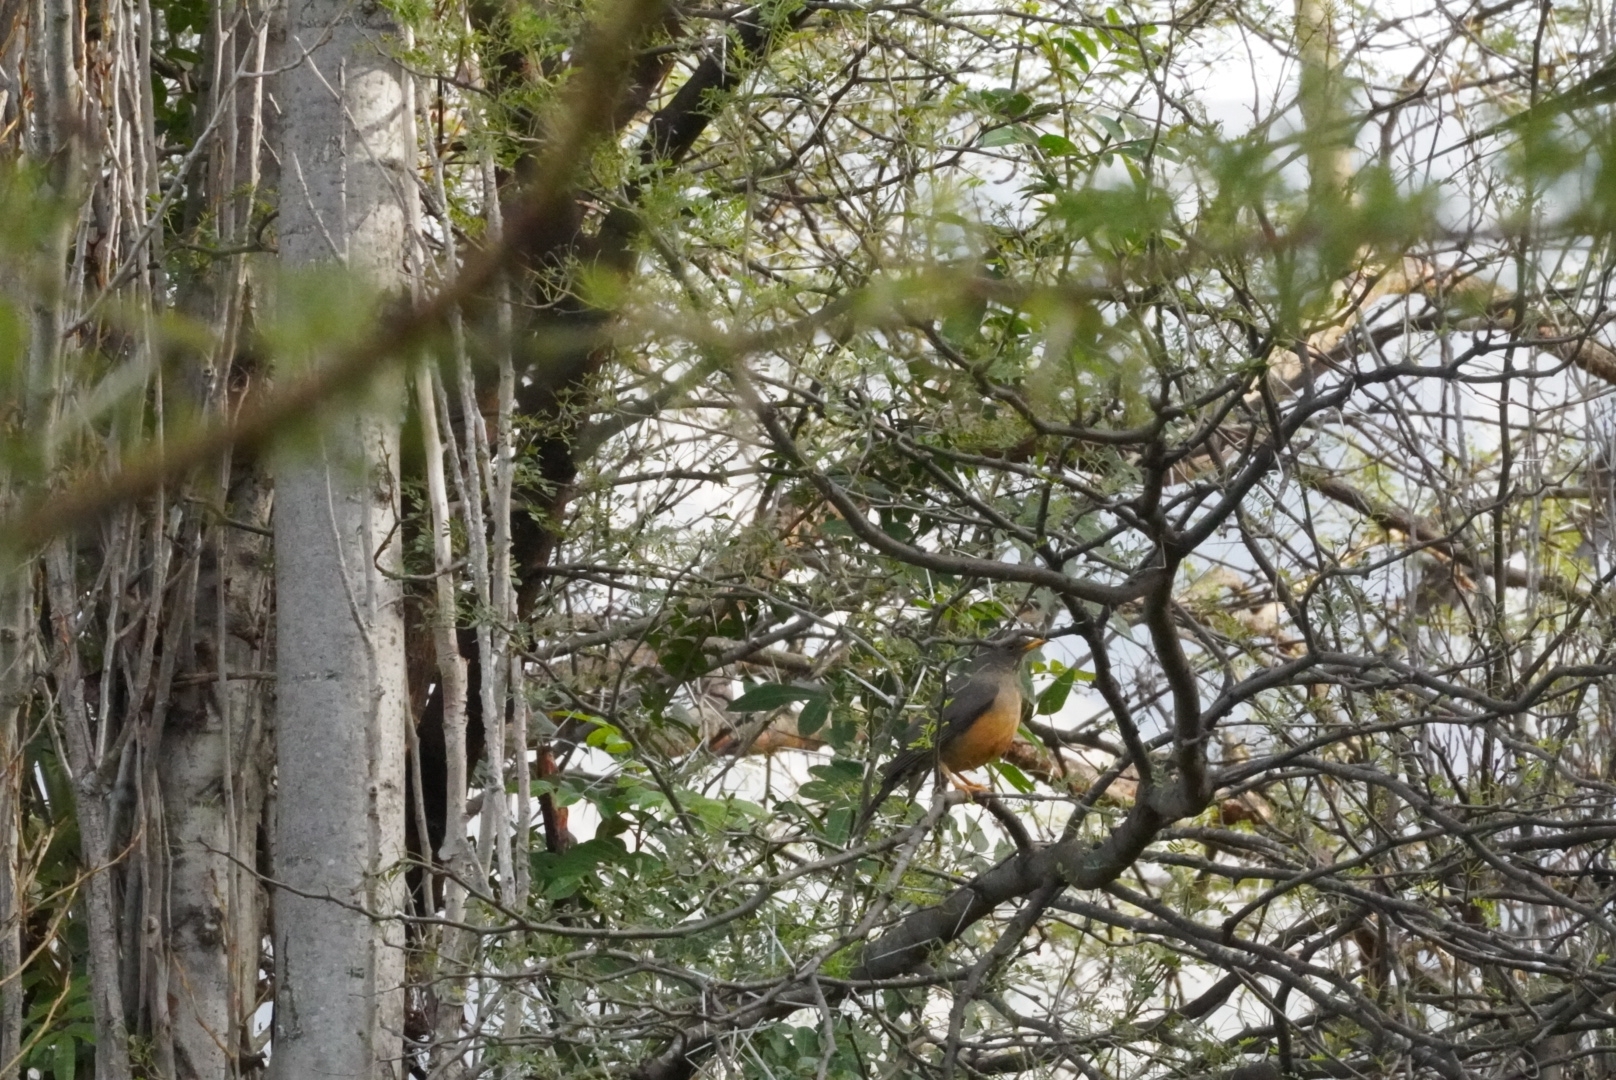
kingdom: Animalia
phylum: Chordata
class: Aves
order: Passeriformes
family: Turdidae
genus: Turdus
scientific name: Turdus olivaceus
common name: Olive thrush
